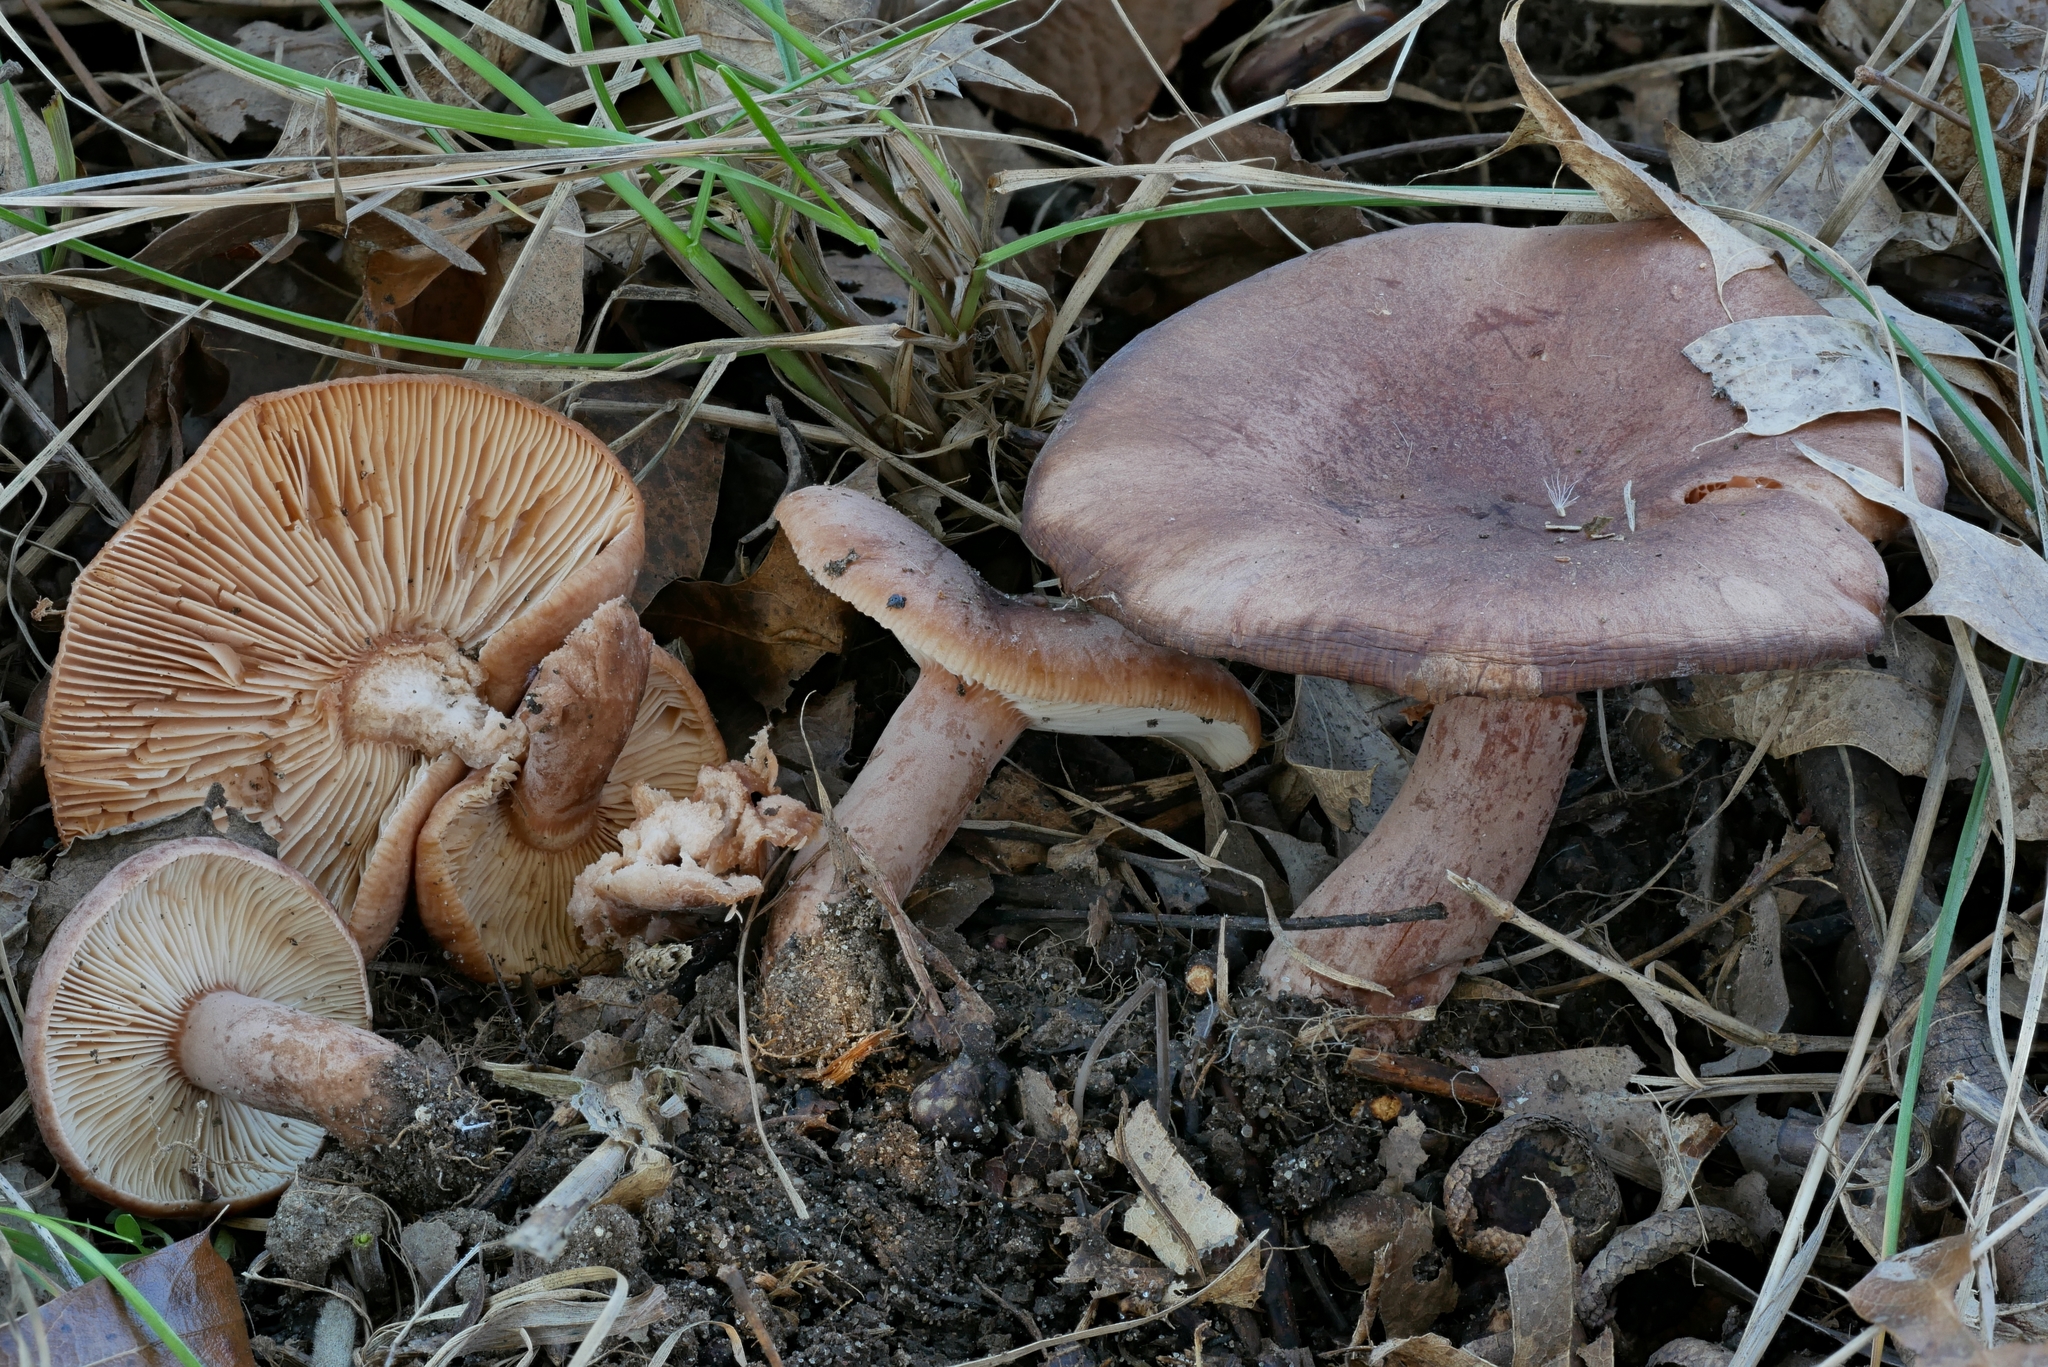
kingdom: Fungi
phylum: Basidiomycota
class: Agaricomycetes
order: Russulales
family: Russulaceae
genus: Lactarius
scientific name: Lactarius mutabilis
